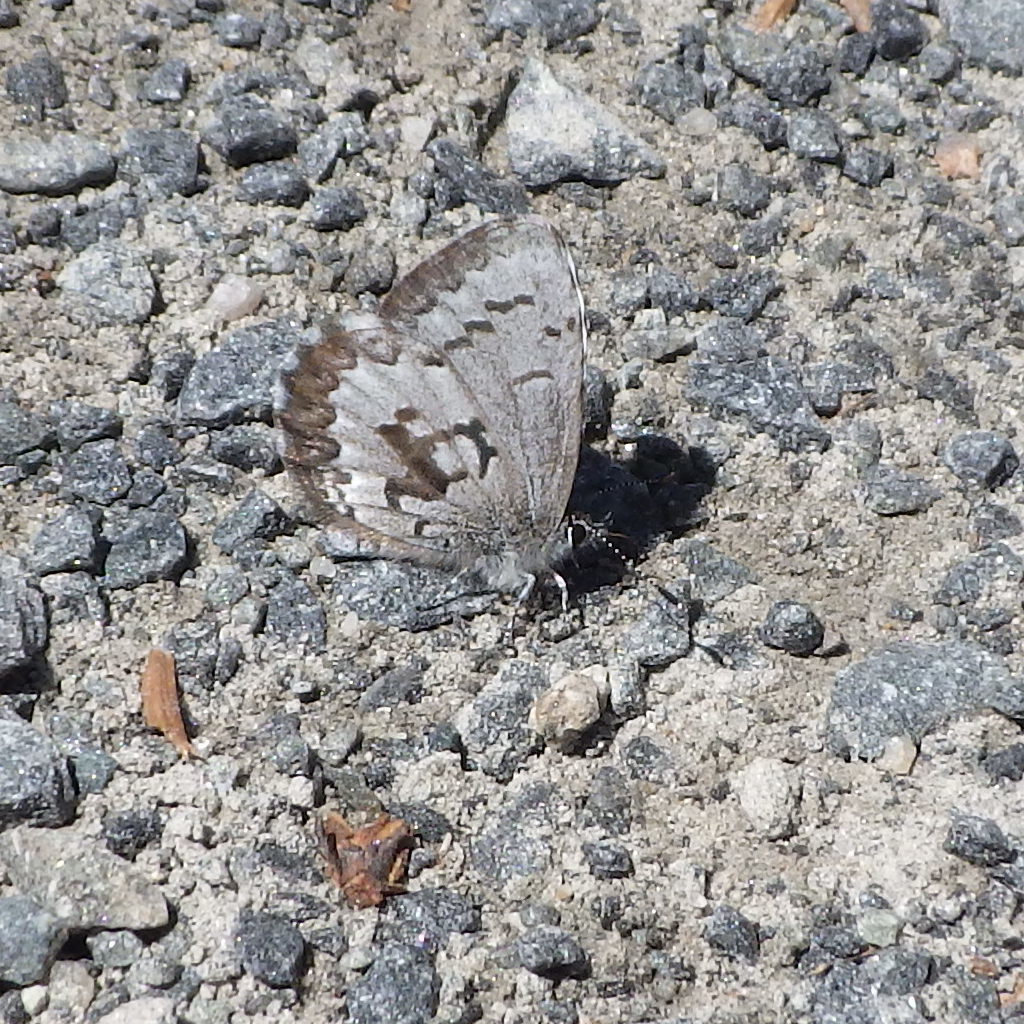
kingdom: Animalia
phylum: Arthropoda
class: Insecta
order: Lepidoptera
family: Lycaenidae
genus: Celastrina
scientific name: Celastrina lucia
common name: Lucia azure
